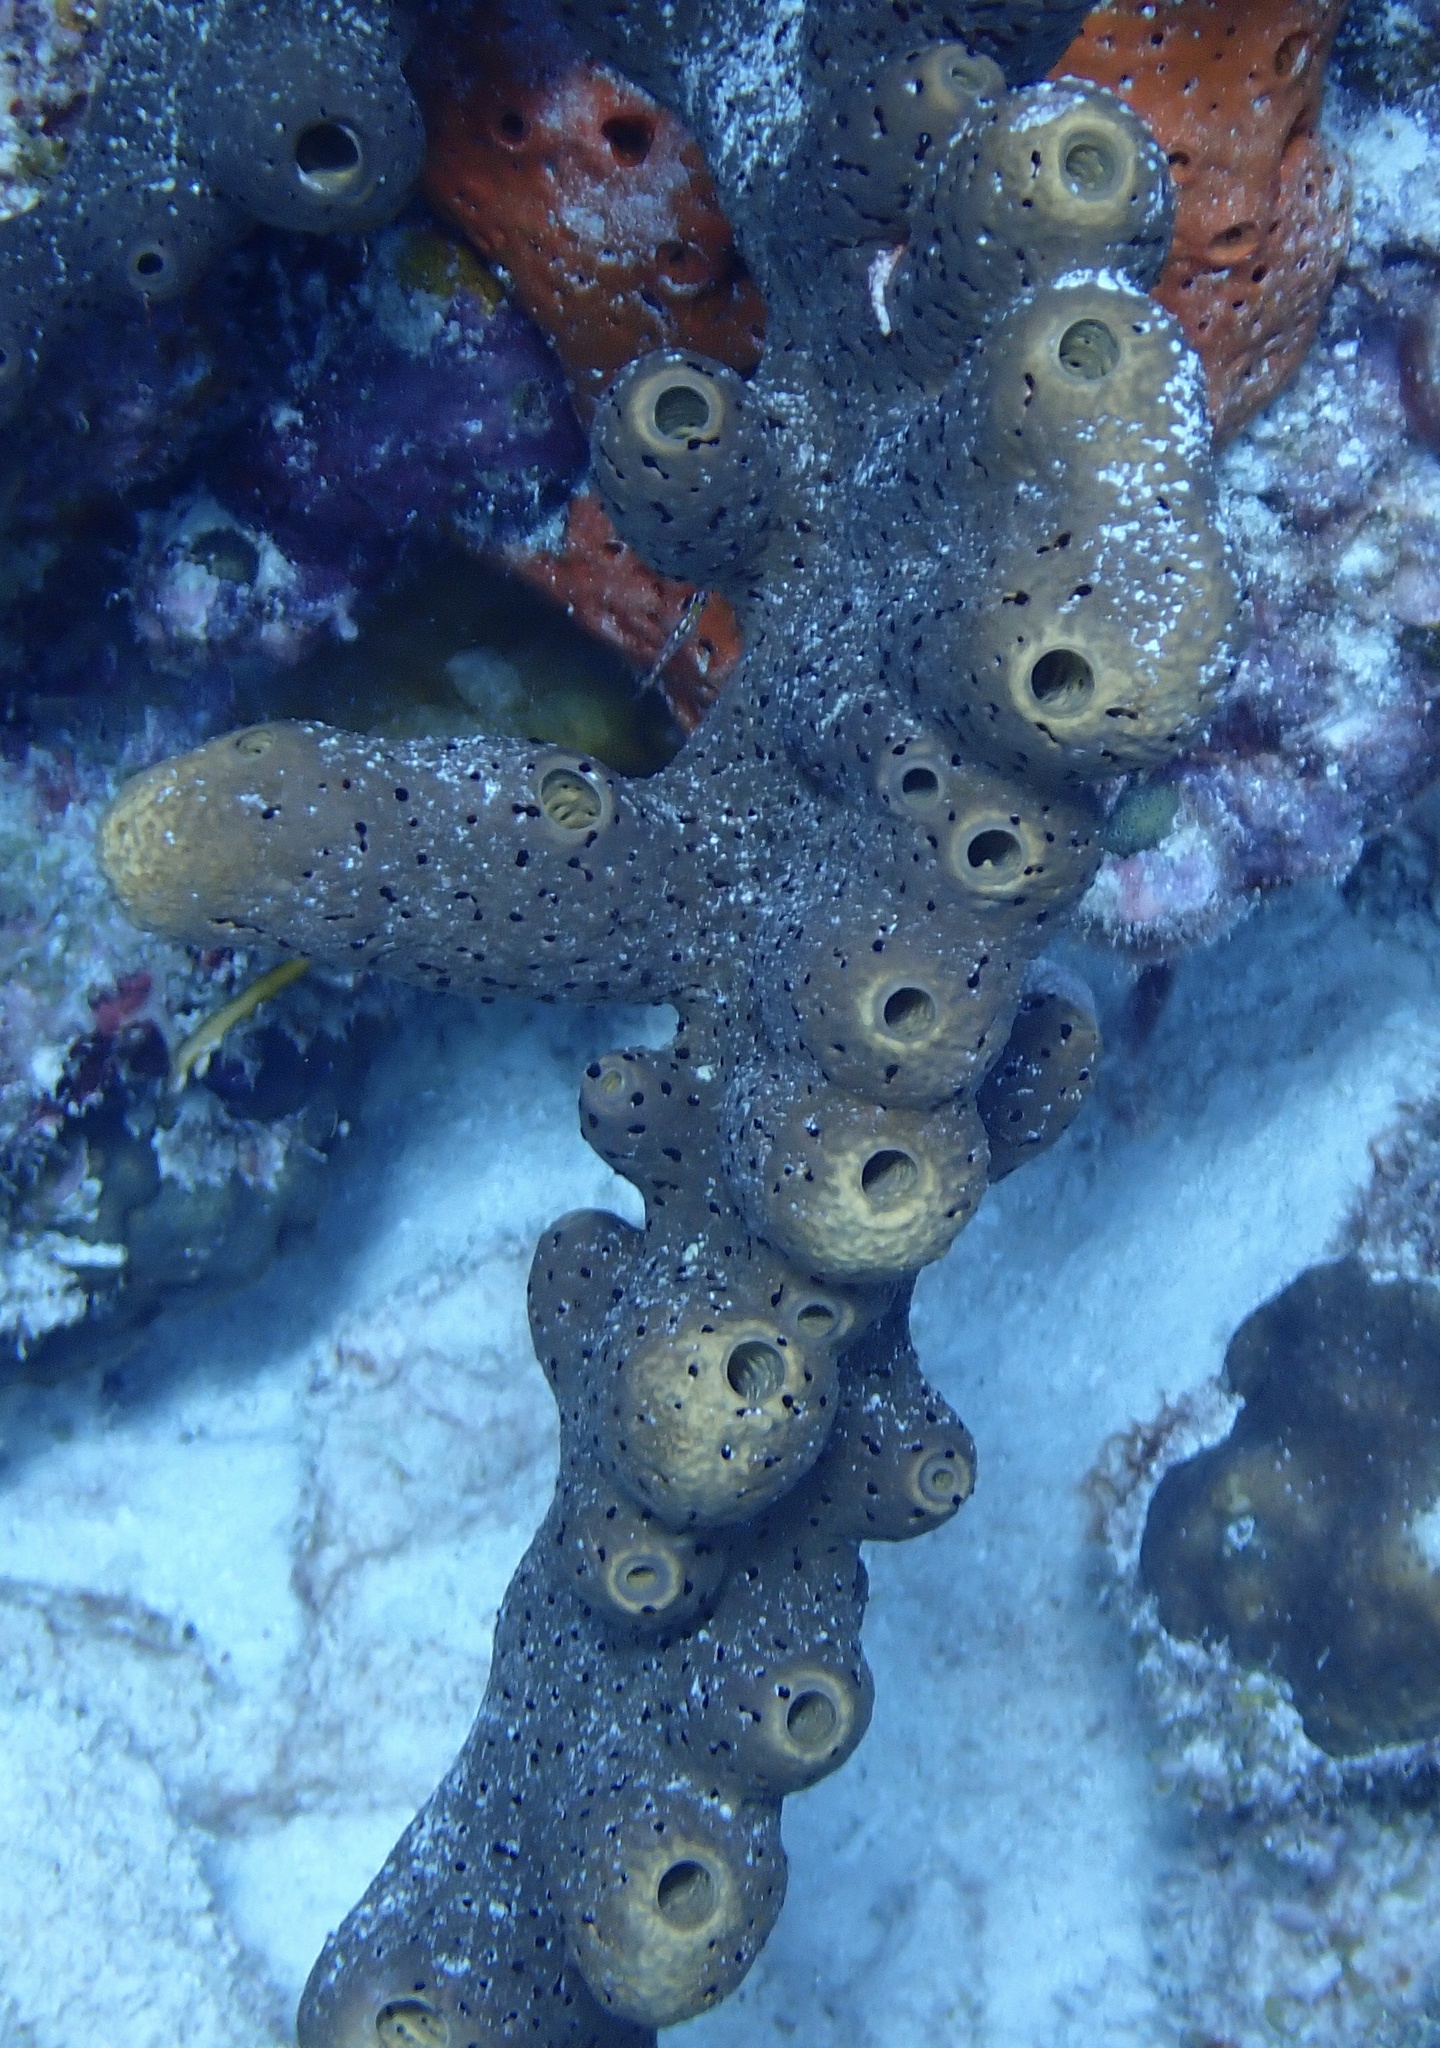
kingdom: Animalia
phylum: Porifera
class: Demospongiae
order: Agelasida
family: Agelasidae
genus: Agelas
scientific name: Agelas conifera
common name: Brown tube sponge
